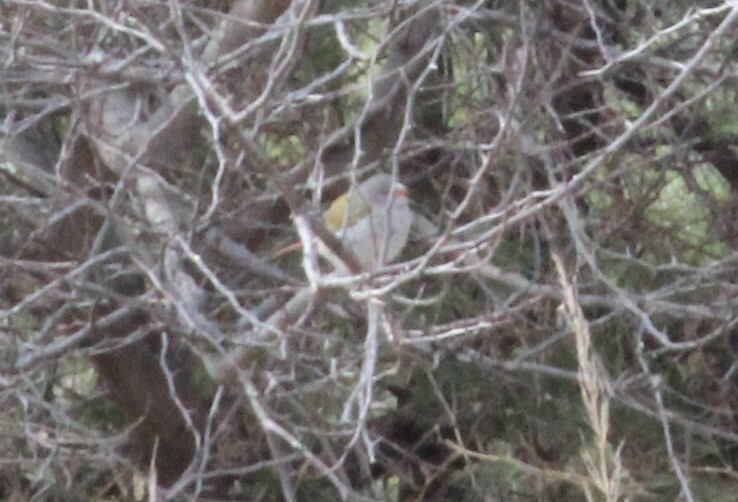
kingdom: Animalia
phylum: Chordata
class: Aves
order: Passeriformes
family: Estrildidae
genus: Pytilia
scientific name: Pytilia melba
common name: Green-winged pytilia
